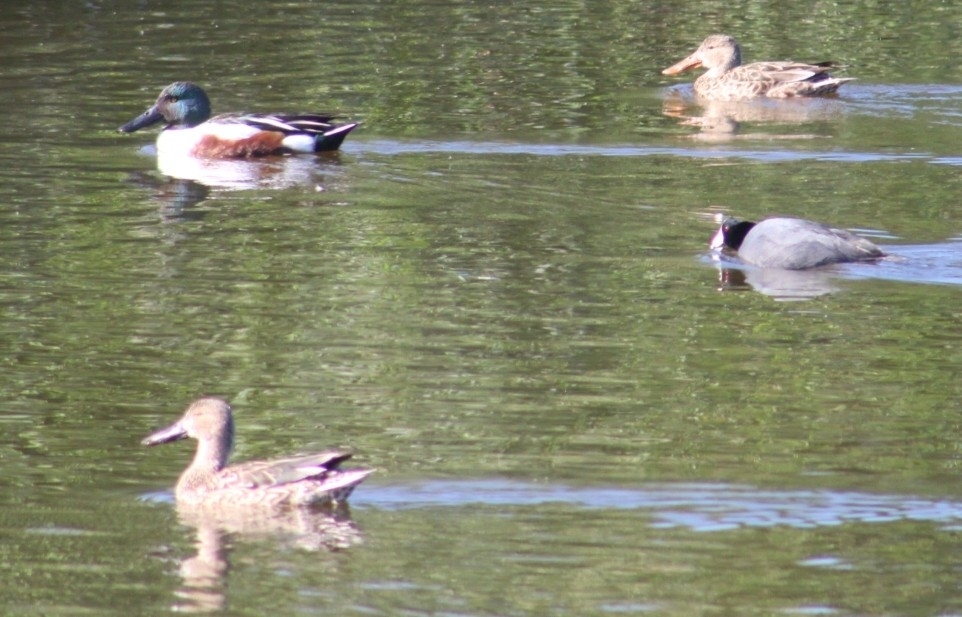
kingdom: Animalia
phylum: Chordata
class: Aves
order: Anseriformes
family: Anatidae
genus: Spatula
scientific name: Spatula clypeata
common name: Northern shoveler
